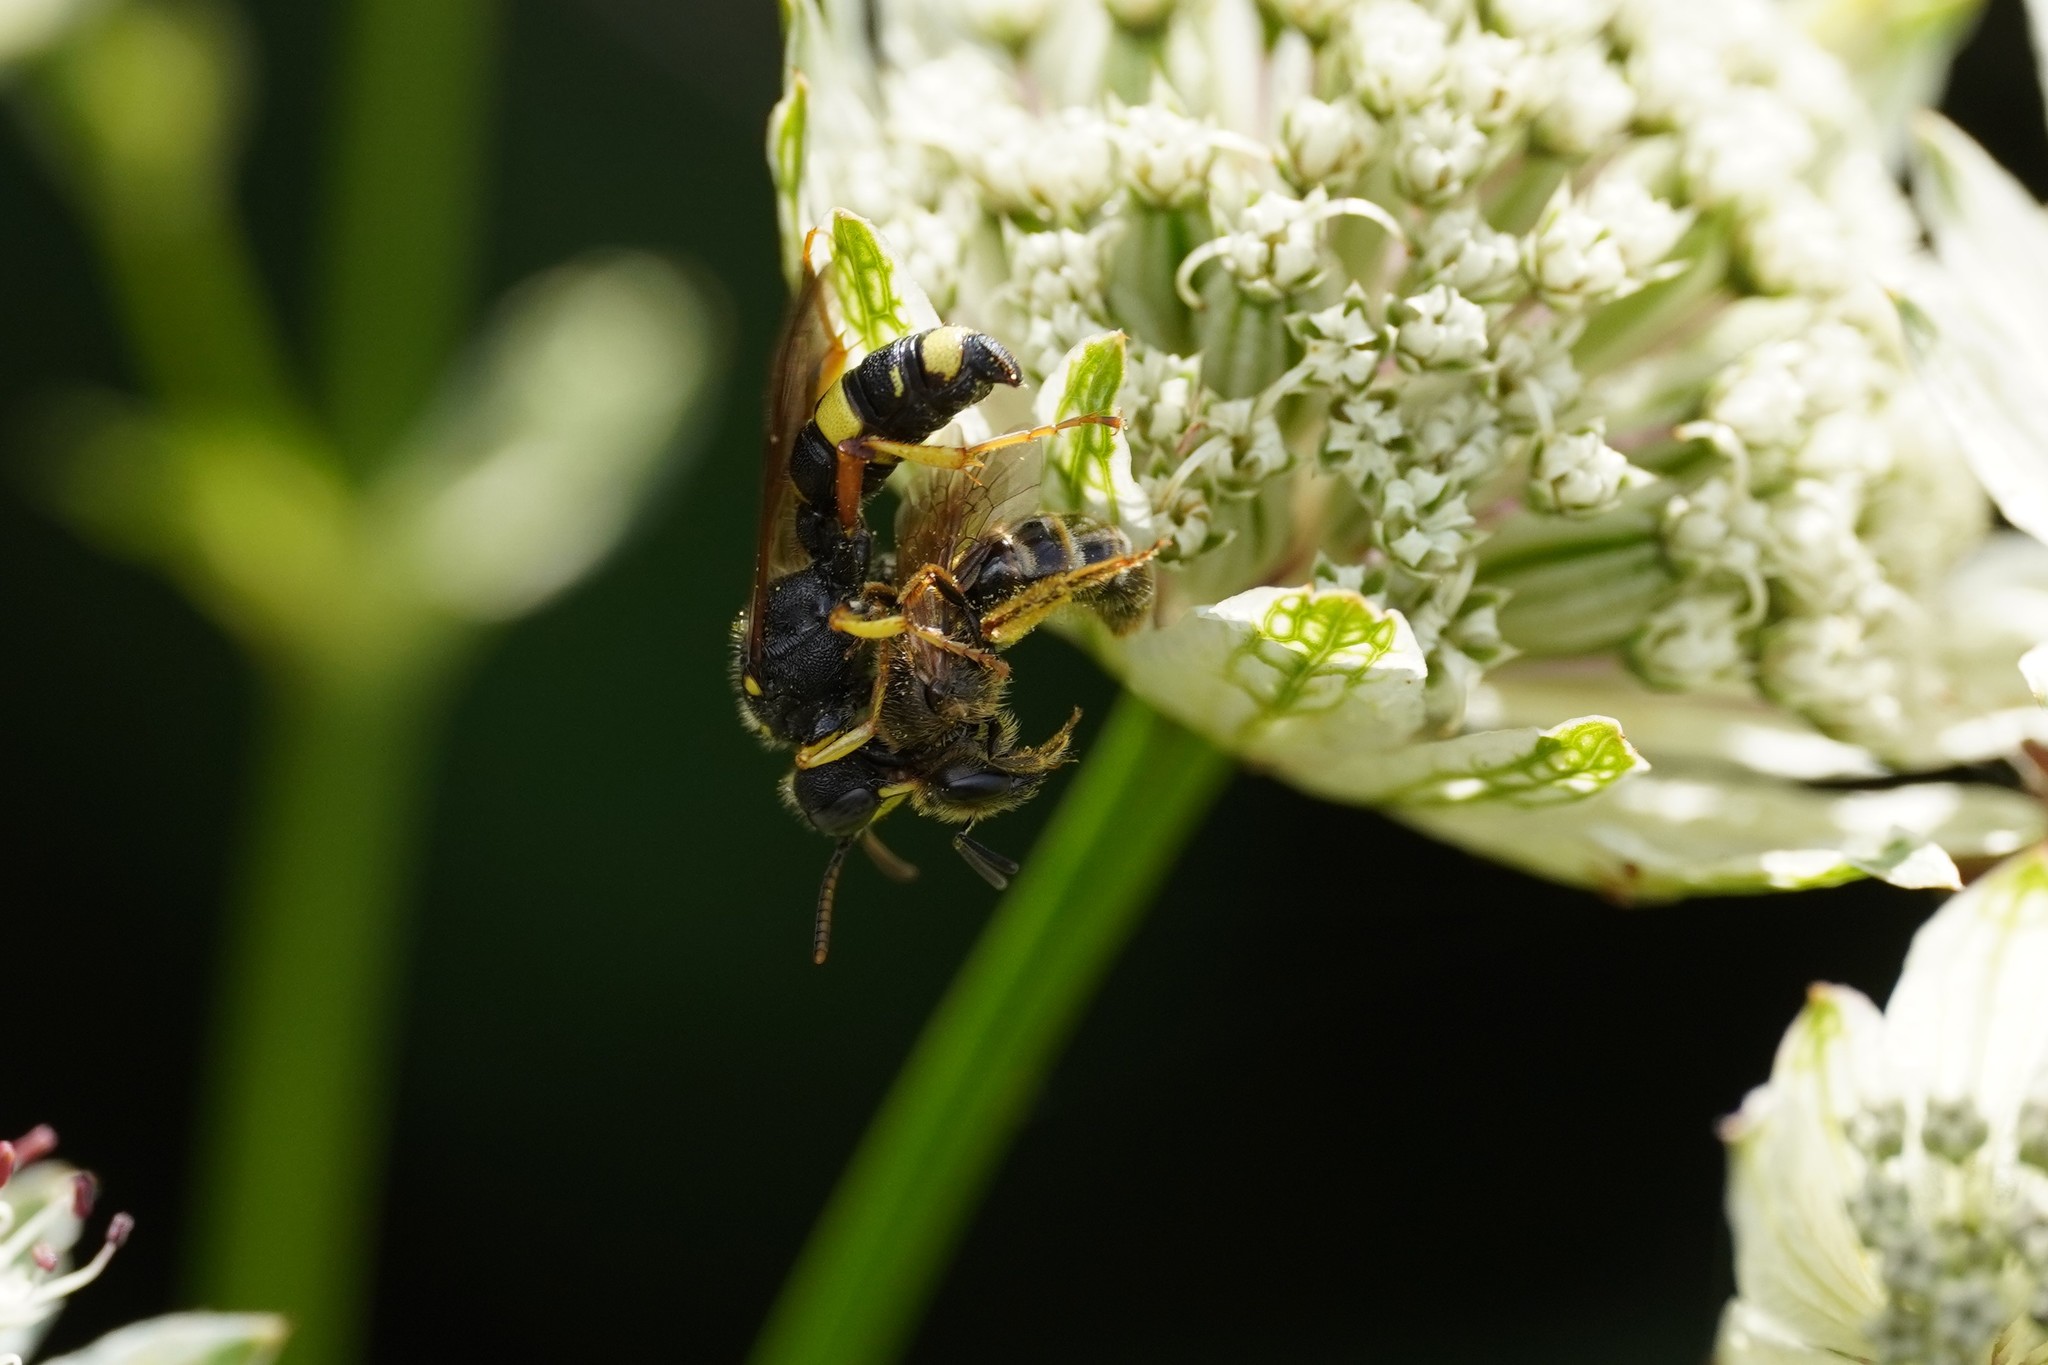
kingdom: Animalia
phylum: Arthropoda
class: Insecta
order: Hymenoptera
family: Crabronidae
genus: Cerceris
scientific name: Cerceris rybyensis
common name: Ornate tailed digger wasp
